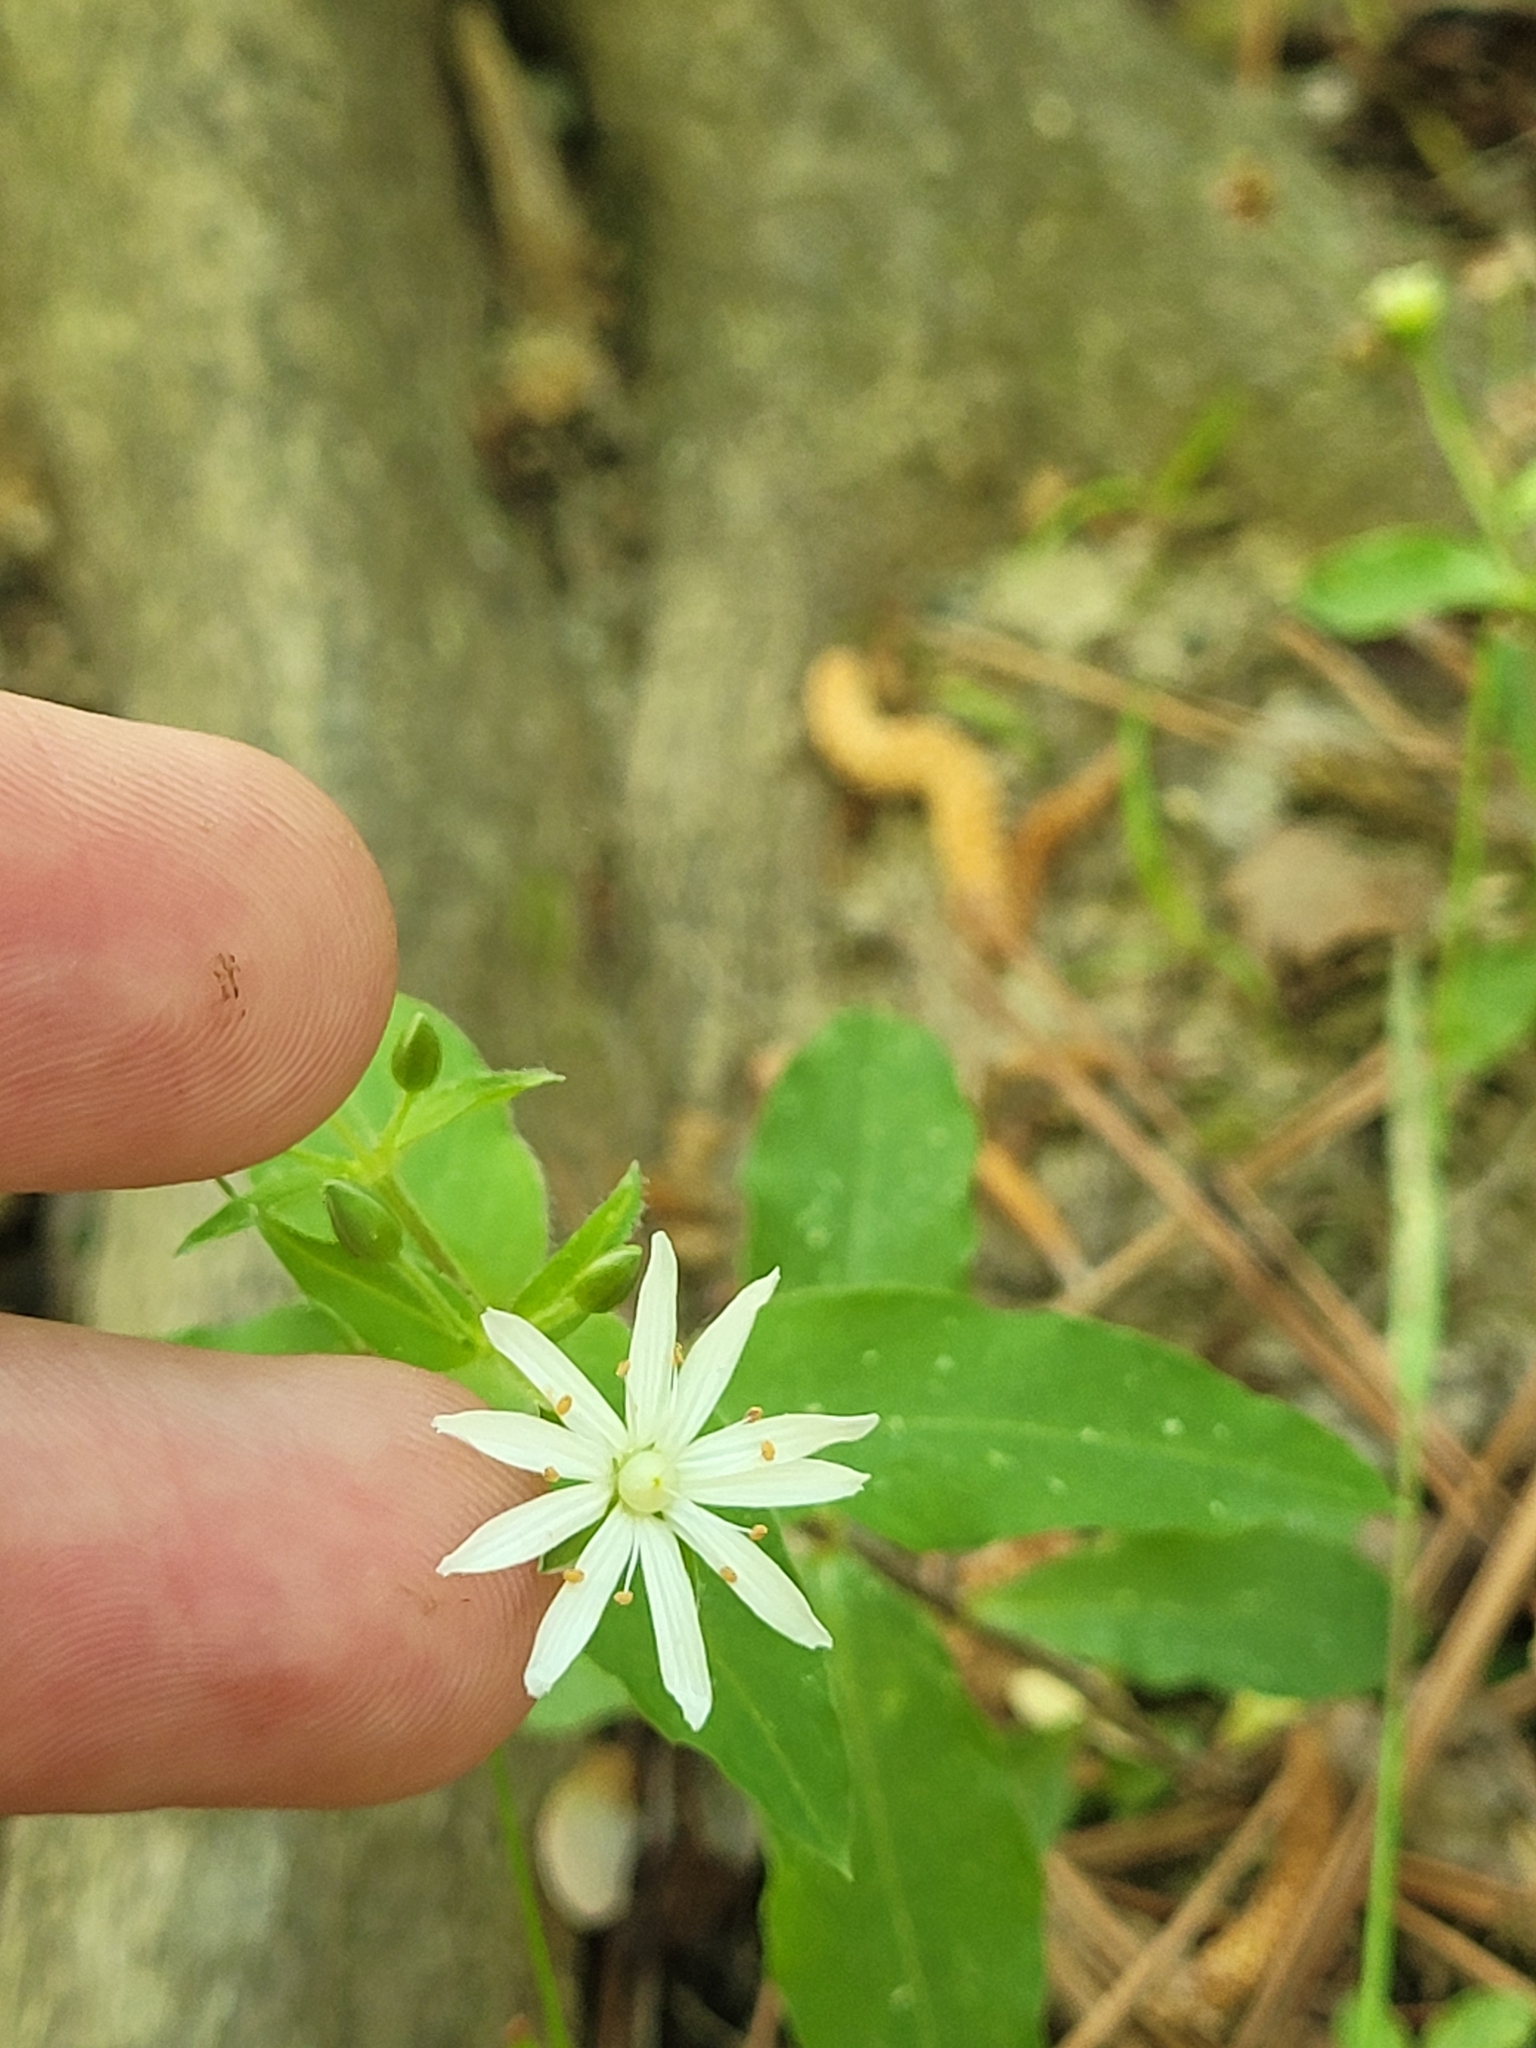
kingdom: Plantae
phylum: Tracheophyta
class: Magnoliopsida
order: Caryophyllales
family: Caryophyllaceae
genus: Stellaria
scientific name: Stellaria pubera
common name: Star chickweed
